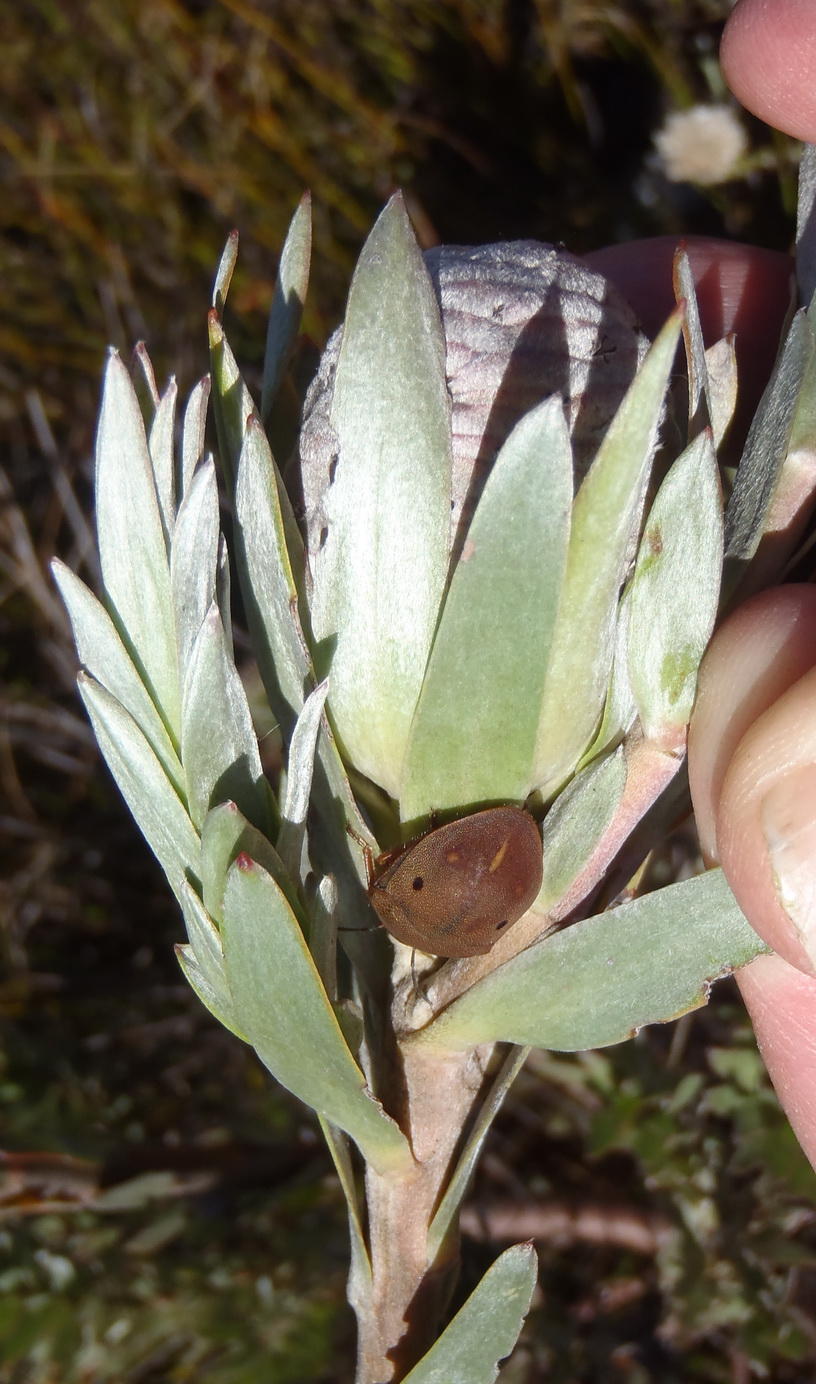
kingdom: Plantae
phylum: Tracheophyta
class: Magnoliopsida
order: Proteales
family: Proteaceae
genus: Leucadendron
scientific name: Leucadendron uliginosum
